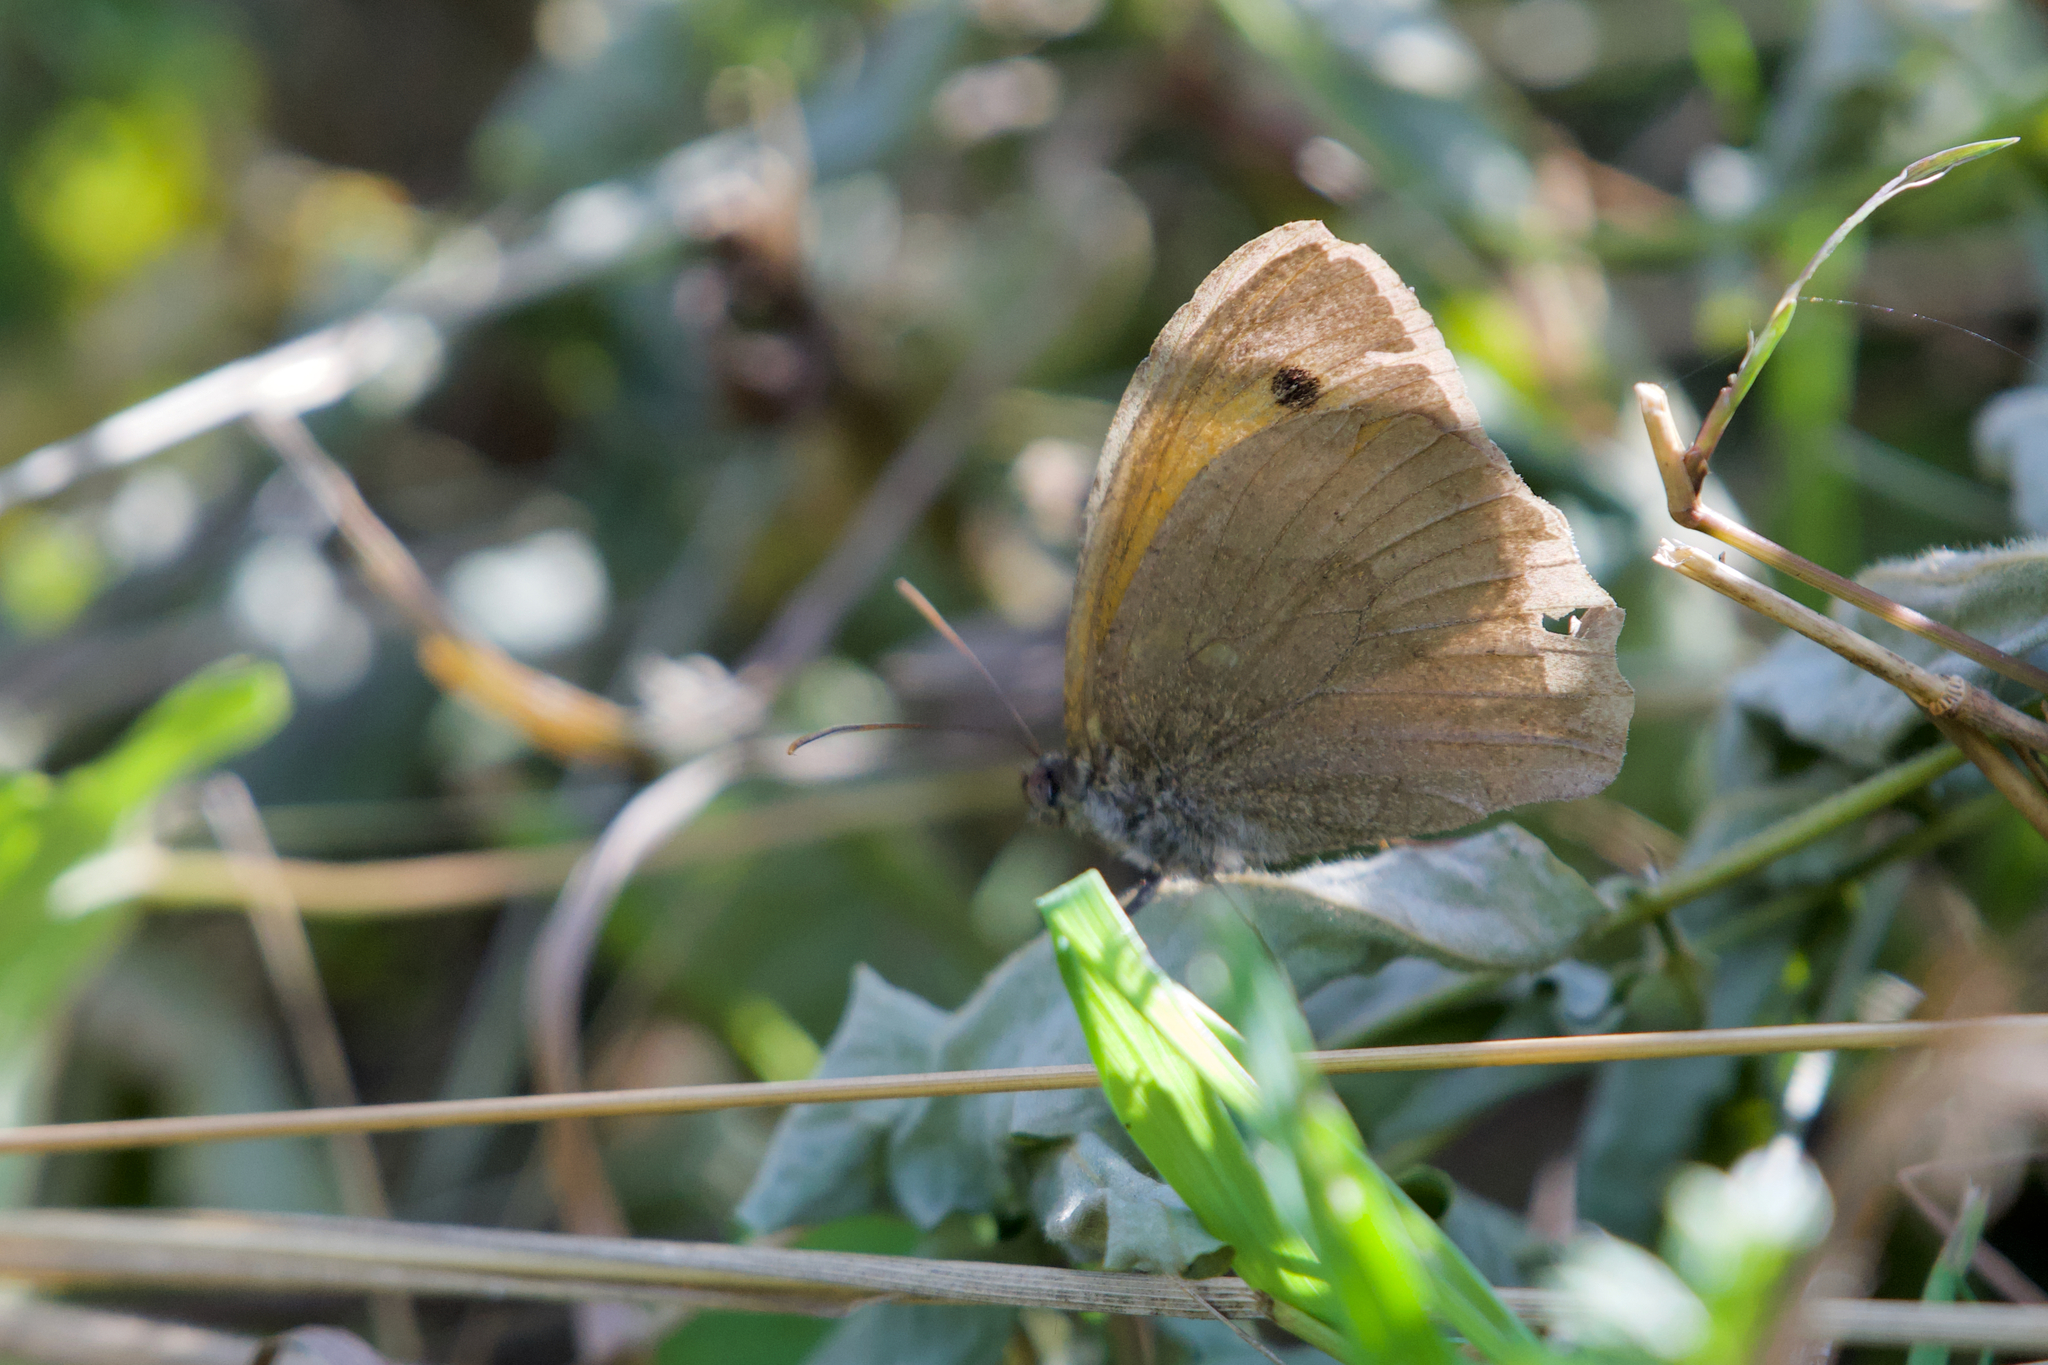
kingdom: Animalia
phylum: Arthropoda
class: Insecta
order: Lepidoptera
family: Nymphalidae
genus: Maniola
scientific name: Maniola jurtina
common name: Meadow brown
